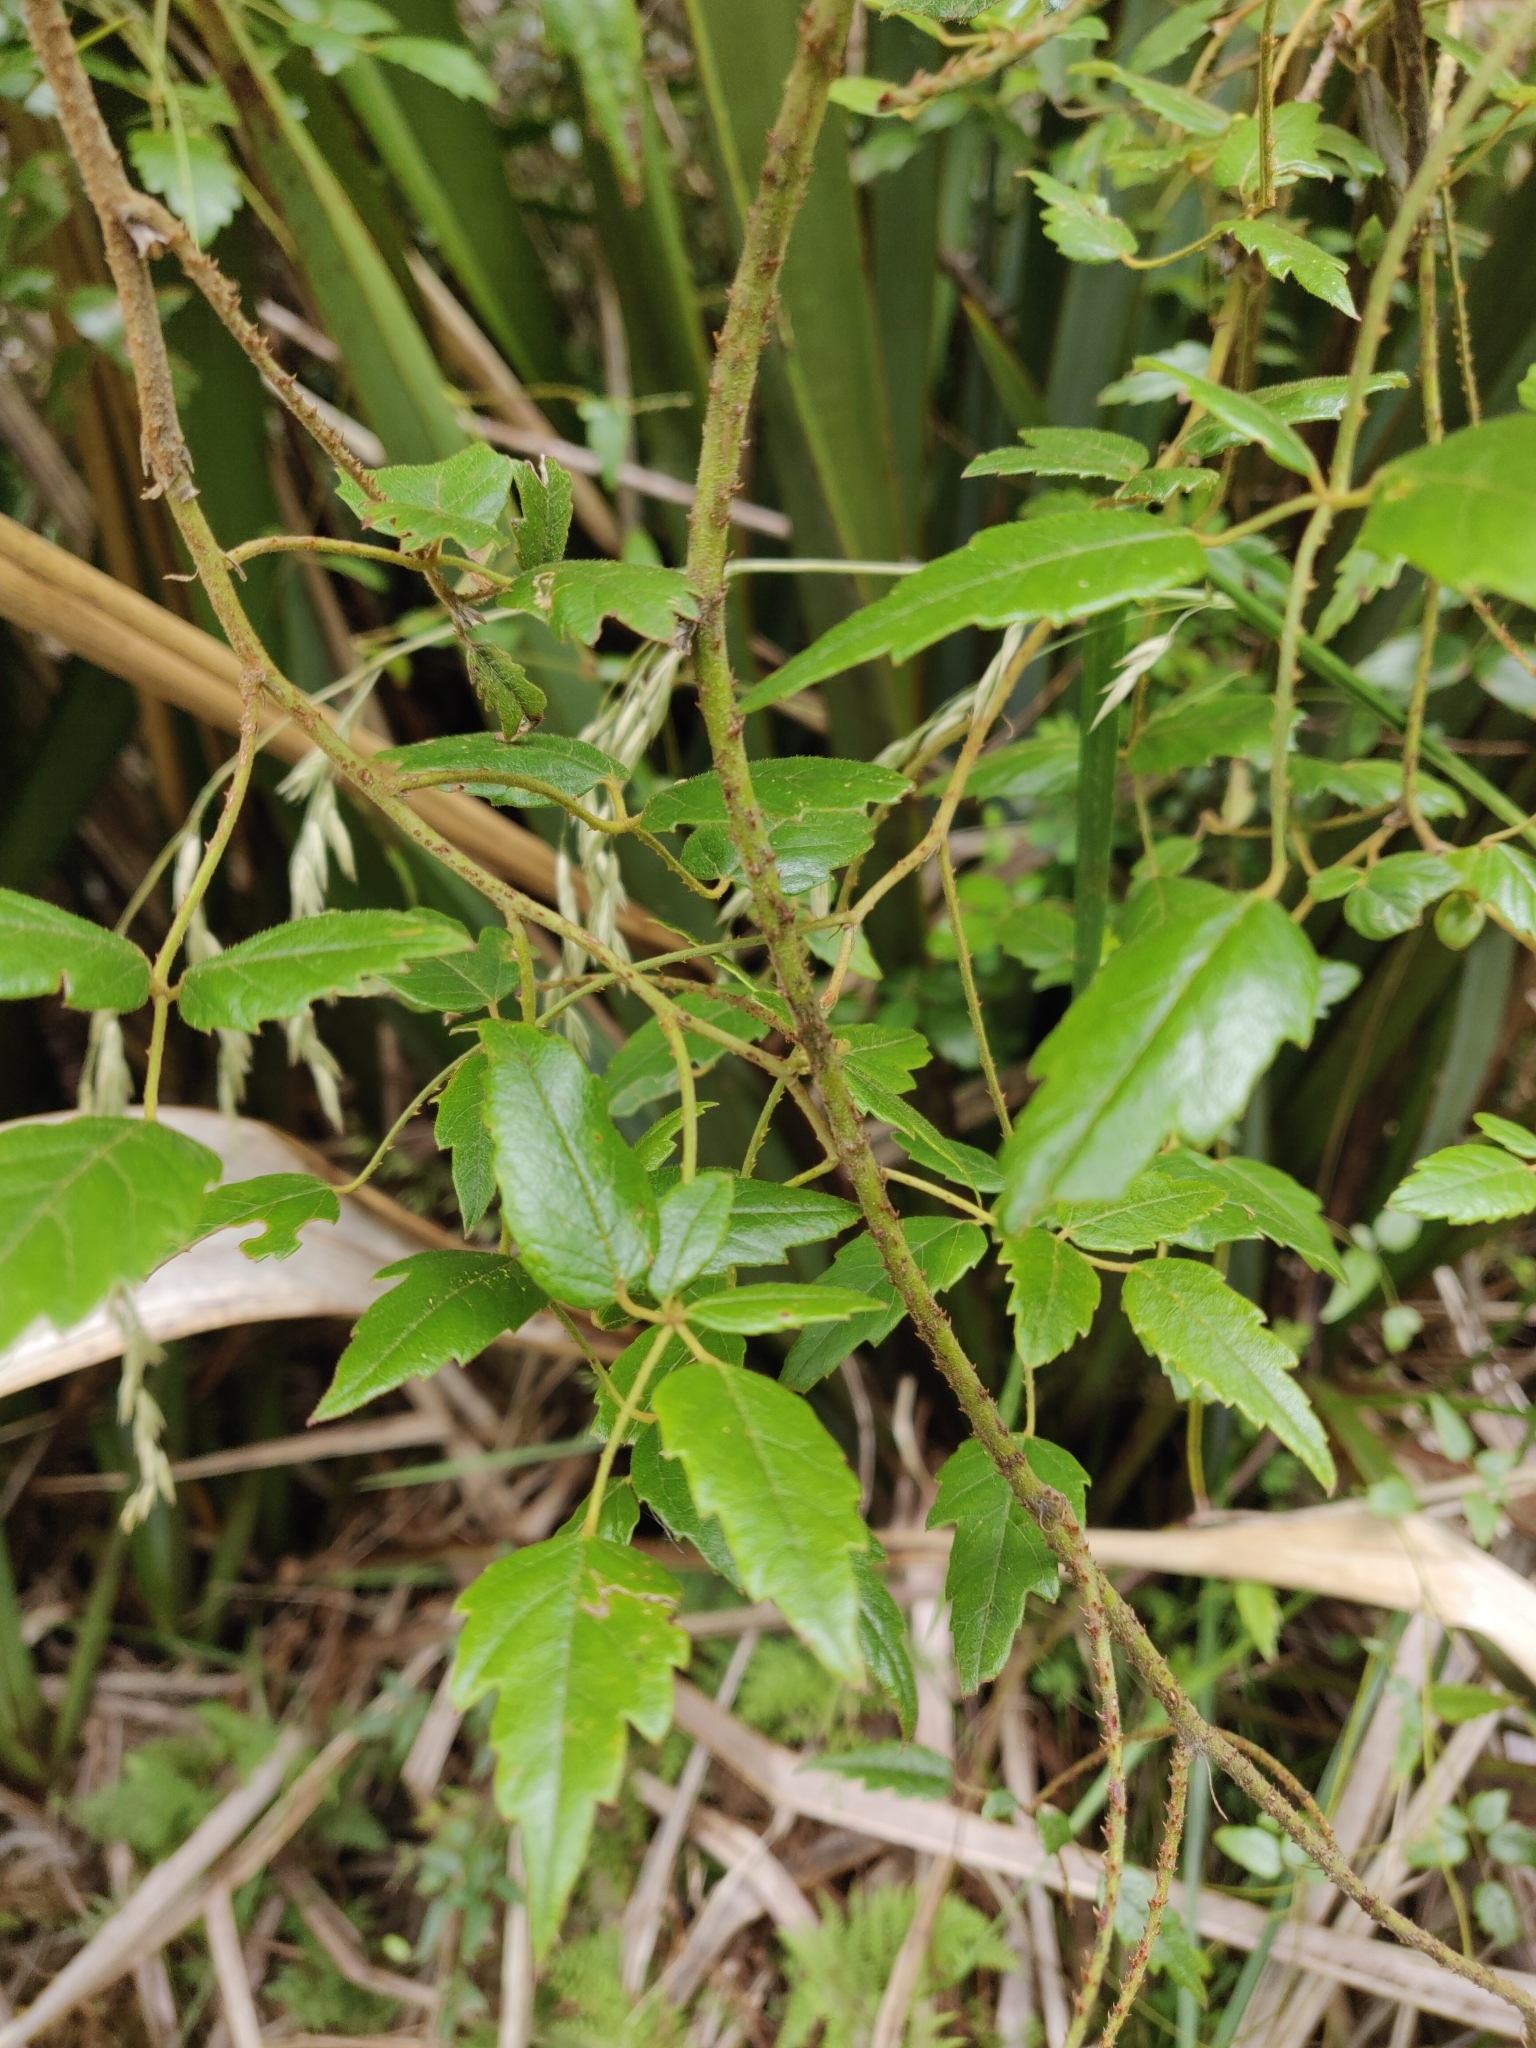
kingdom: Plantae
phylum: Tracheophyta
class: Magnoliopsida
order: Rosales
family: Rosaceae
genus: Rubus
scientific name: Rubus cissoides
